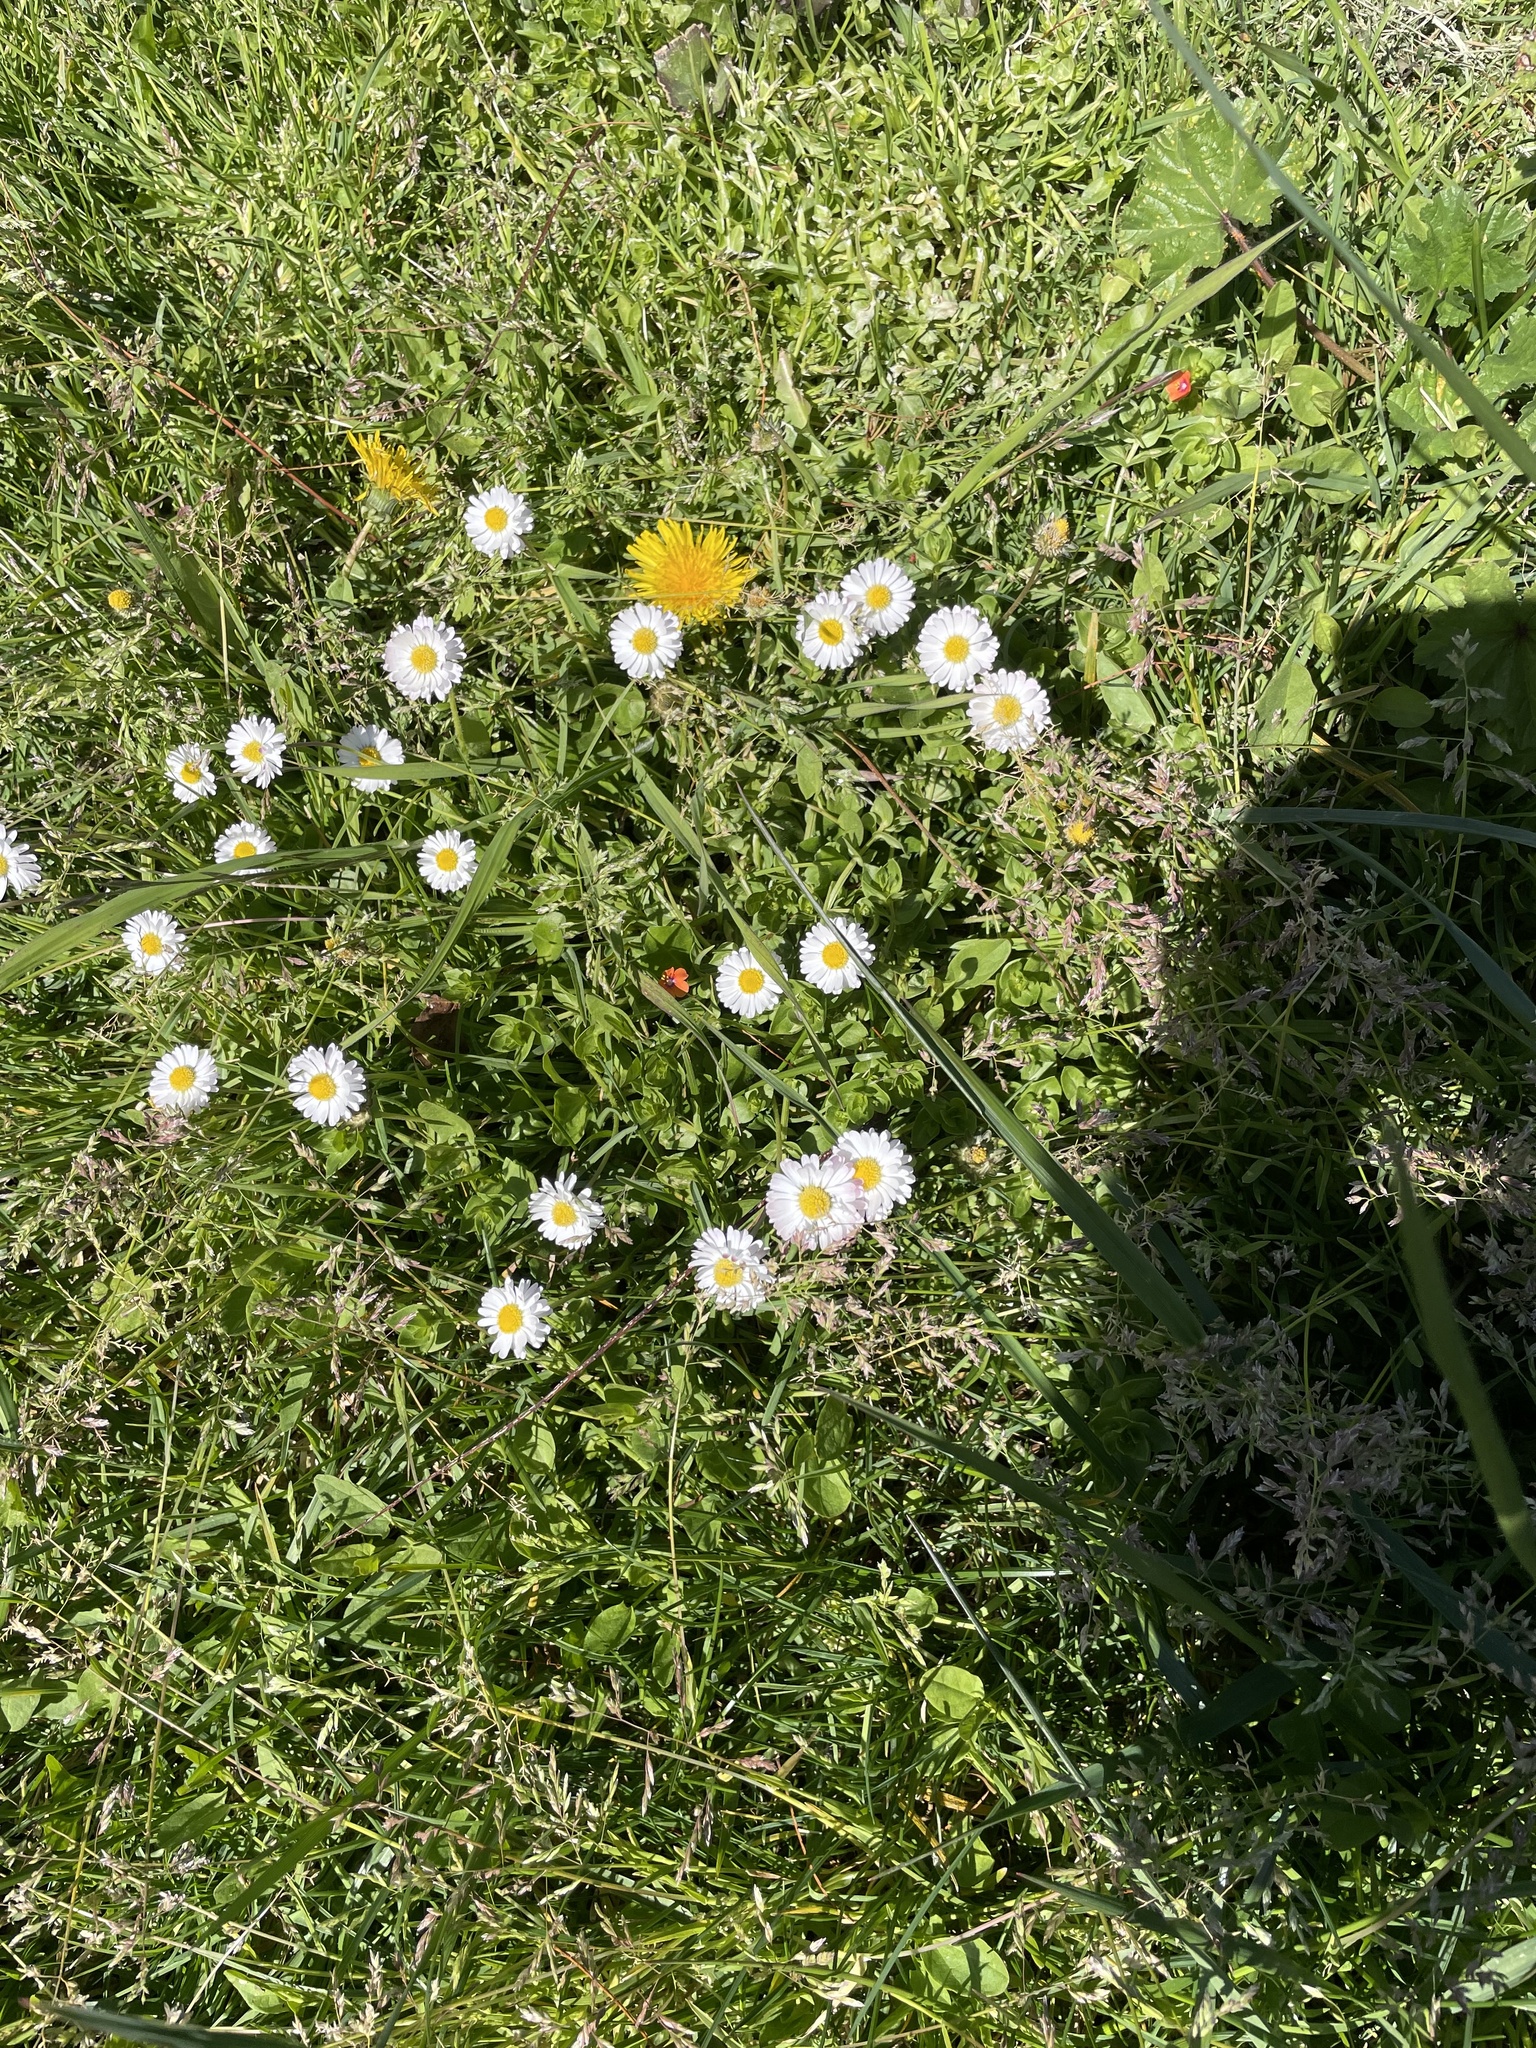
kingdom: Plantae
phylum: Tracheophyta
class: Magnoliopsida
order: Asterales
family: Asteraceae
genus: Bellis
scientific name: Bellis perennis
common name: Lawndaisy
